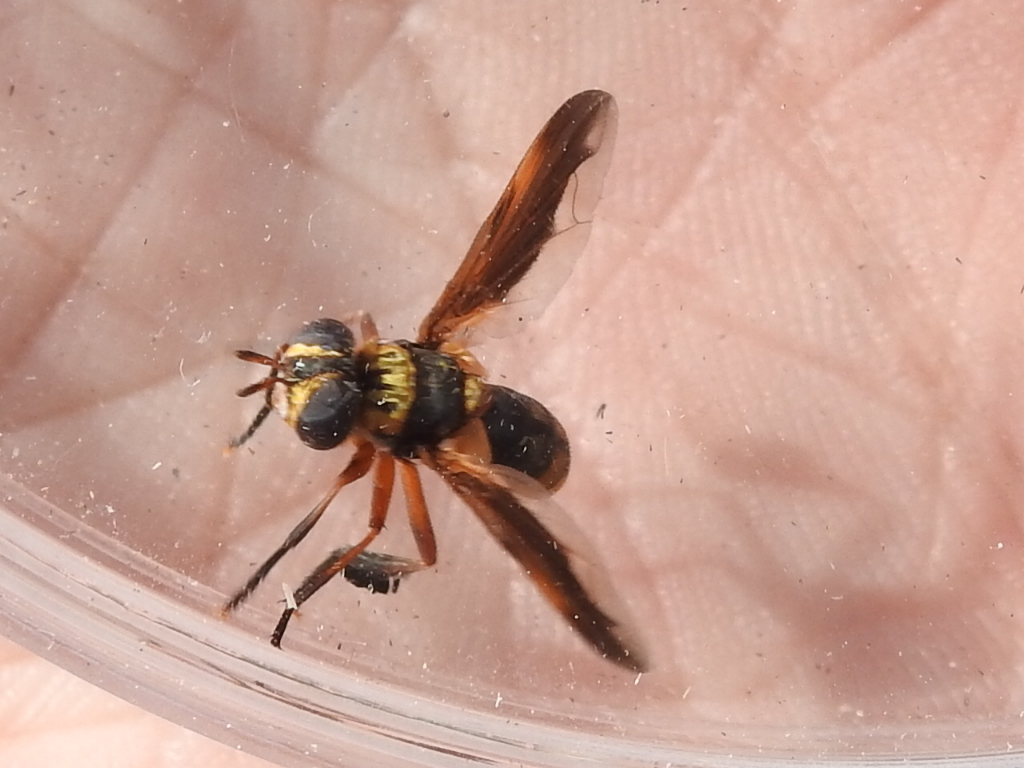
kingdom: Animalia
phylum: Arthropoda
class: Insecta
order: Diptera
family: Tachinidae
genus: Trichopoda
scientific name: Trichopoda plumipes
